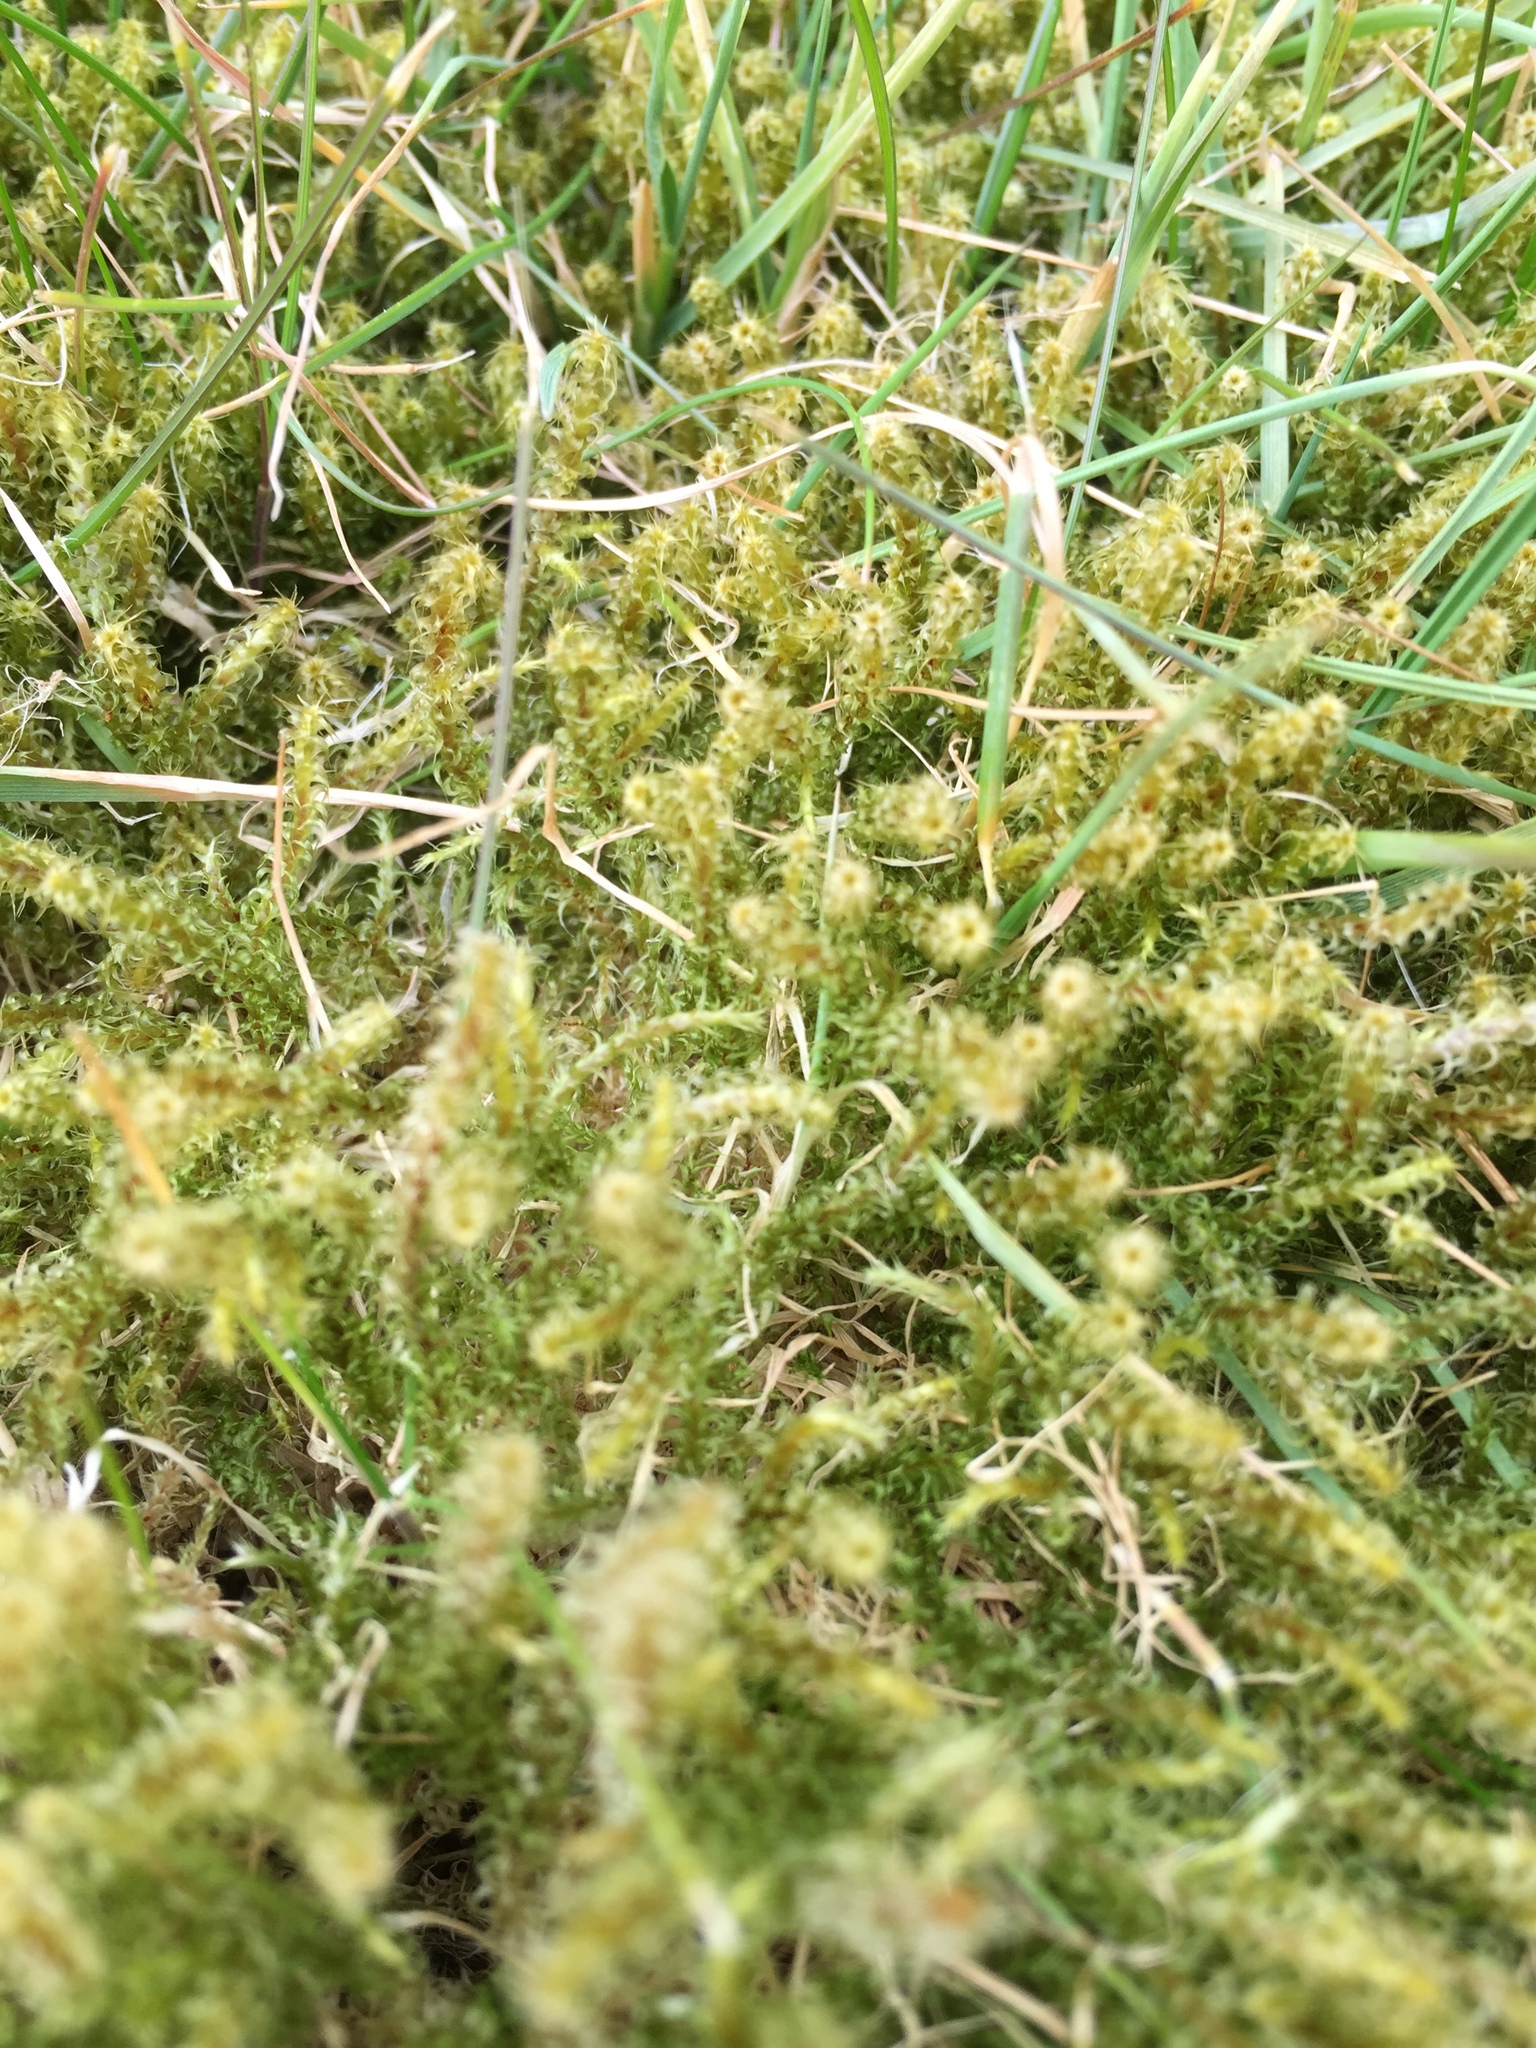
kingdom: Plantae
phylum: Bryophyta
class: Bryopsida
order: Hypnales
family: Hylocomiaceae
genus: Rhytidiadelphus
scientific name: Rhytidiadelphus squarrosus
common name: Springy turf-moss
